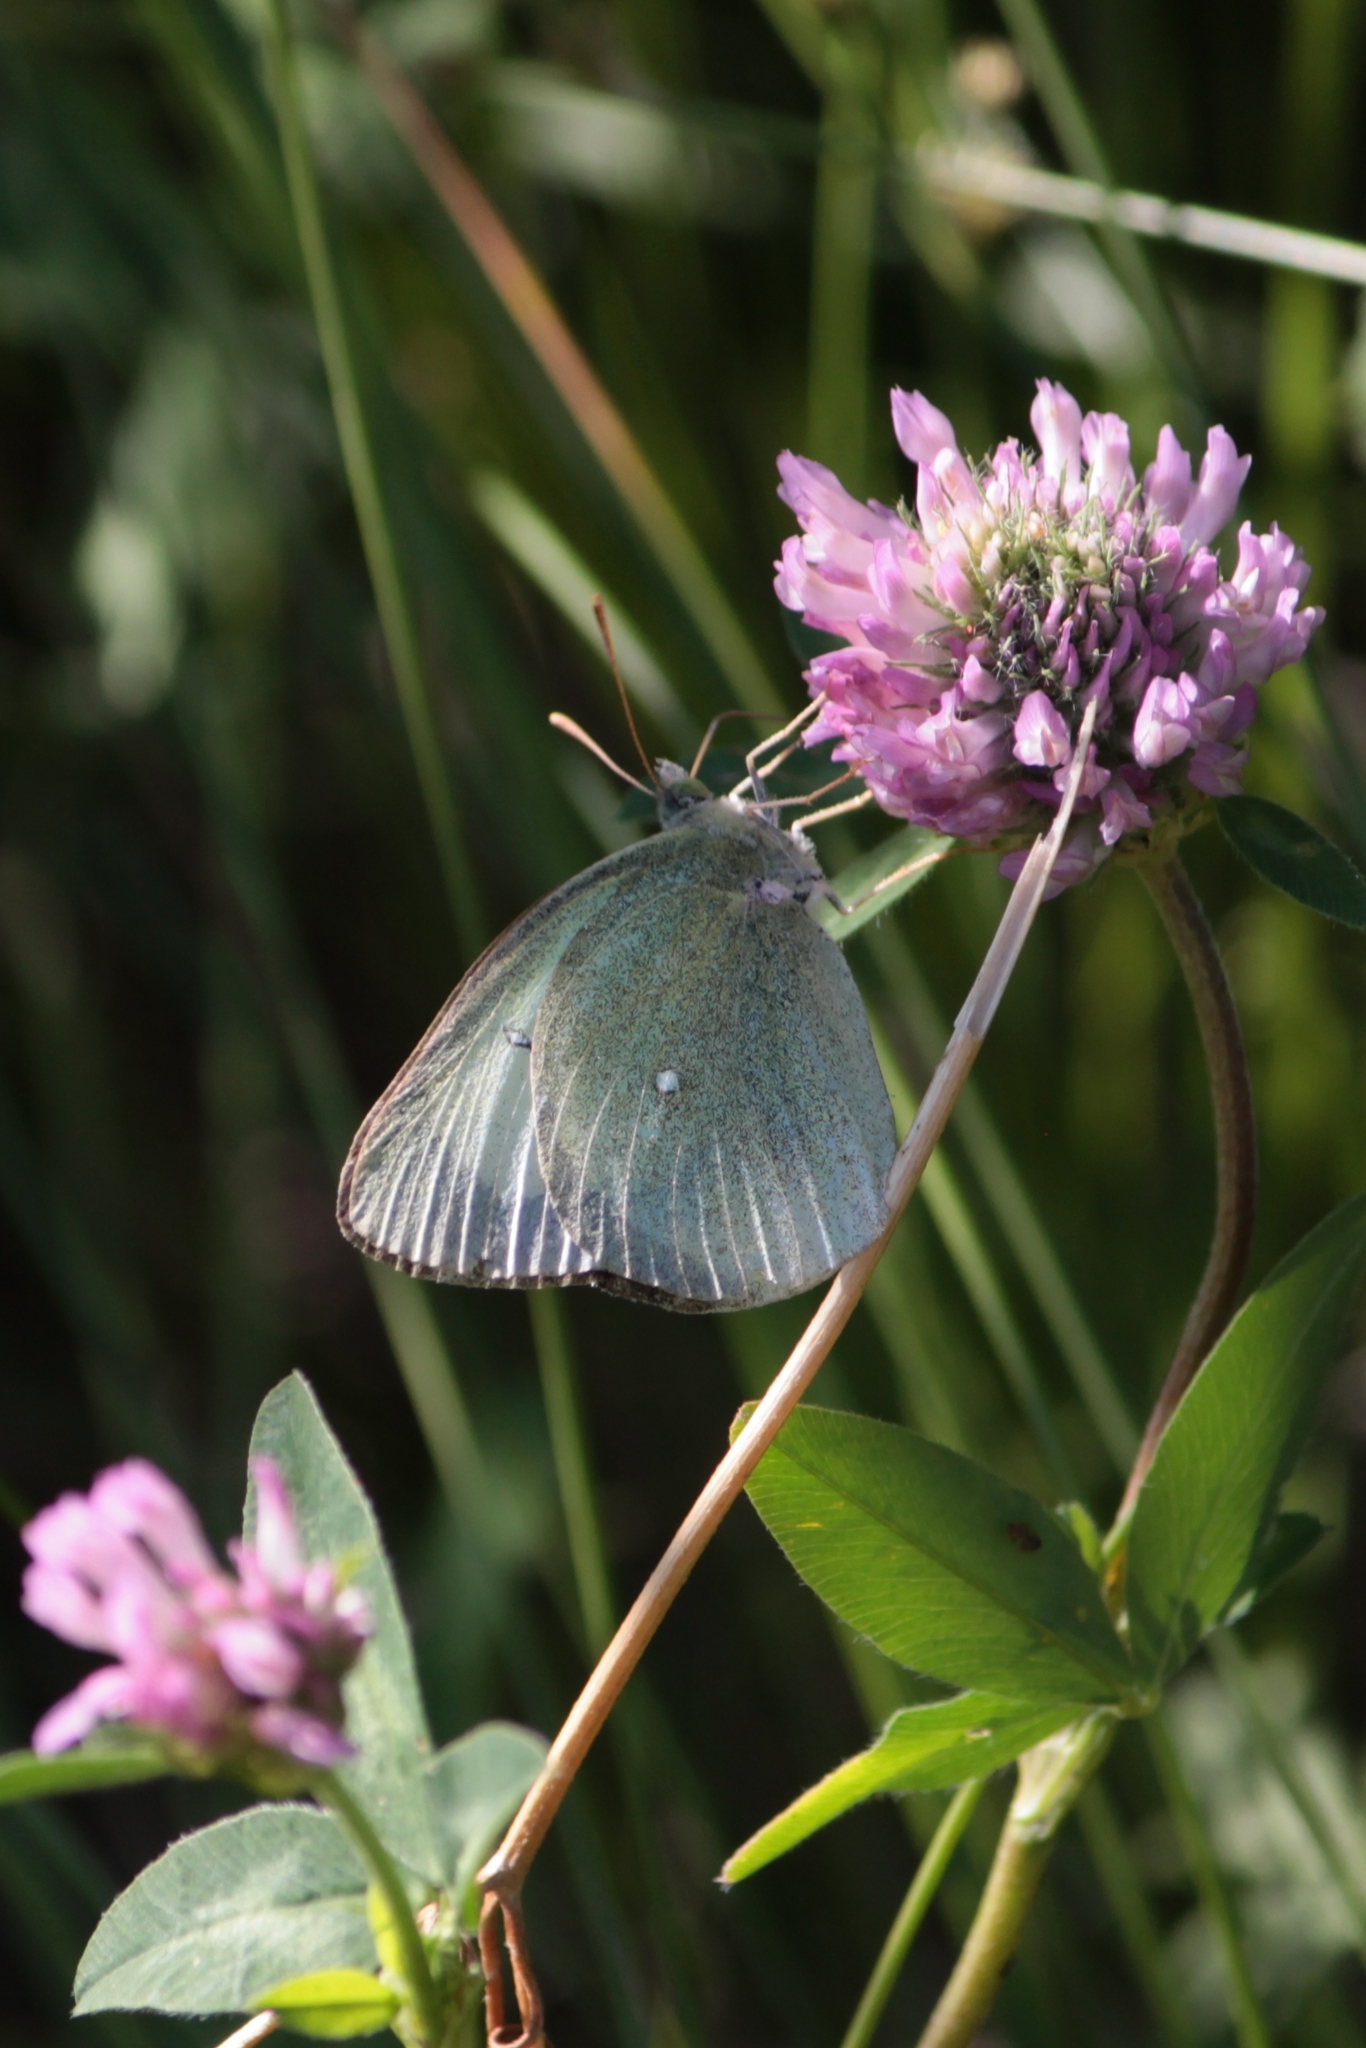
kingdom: Animalia
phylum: Arthropoda
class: Insecta
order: Lepidoptera
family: Pieridae
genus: Colias
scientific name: Colias palaeno
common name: Moorland clouded yellow
